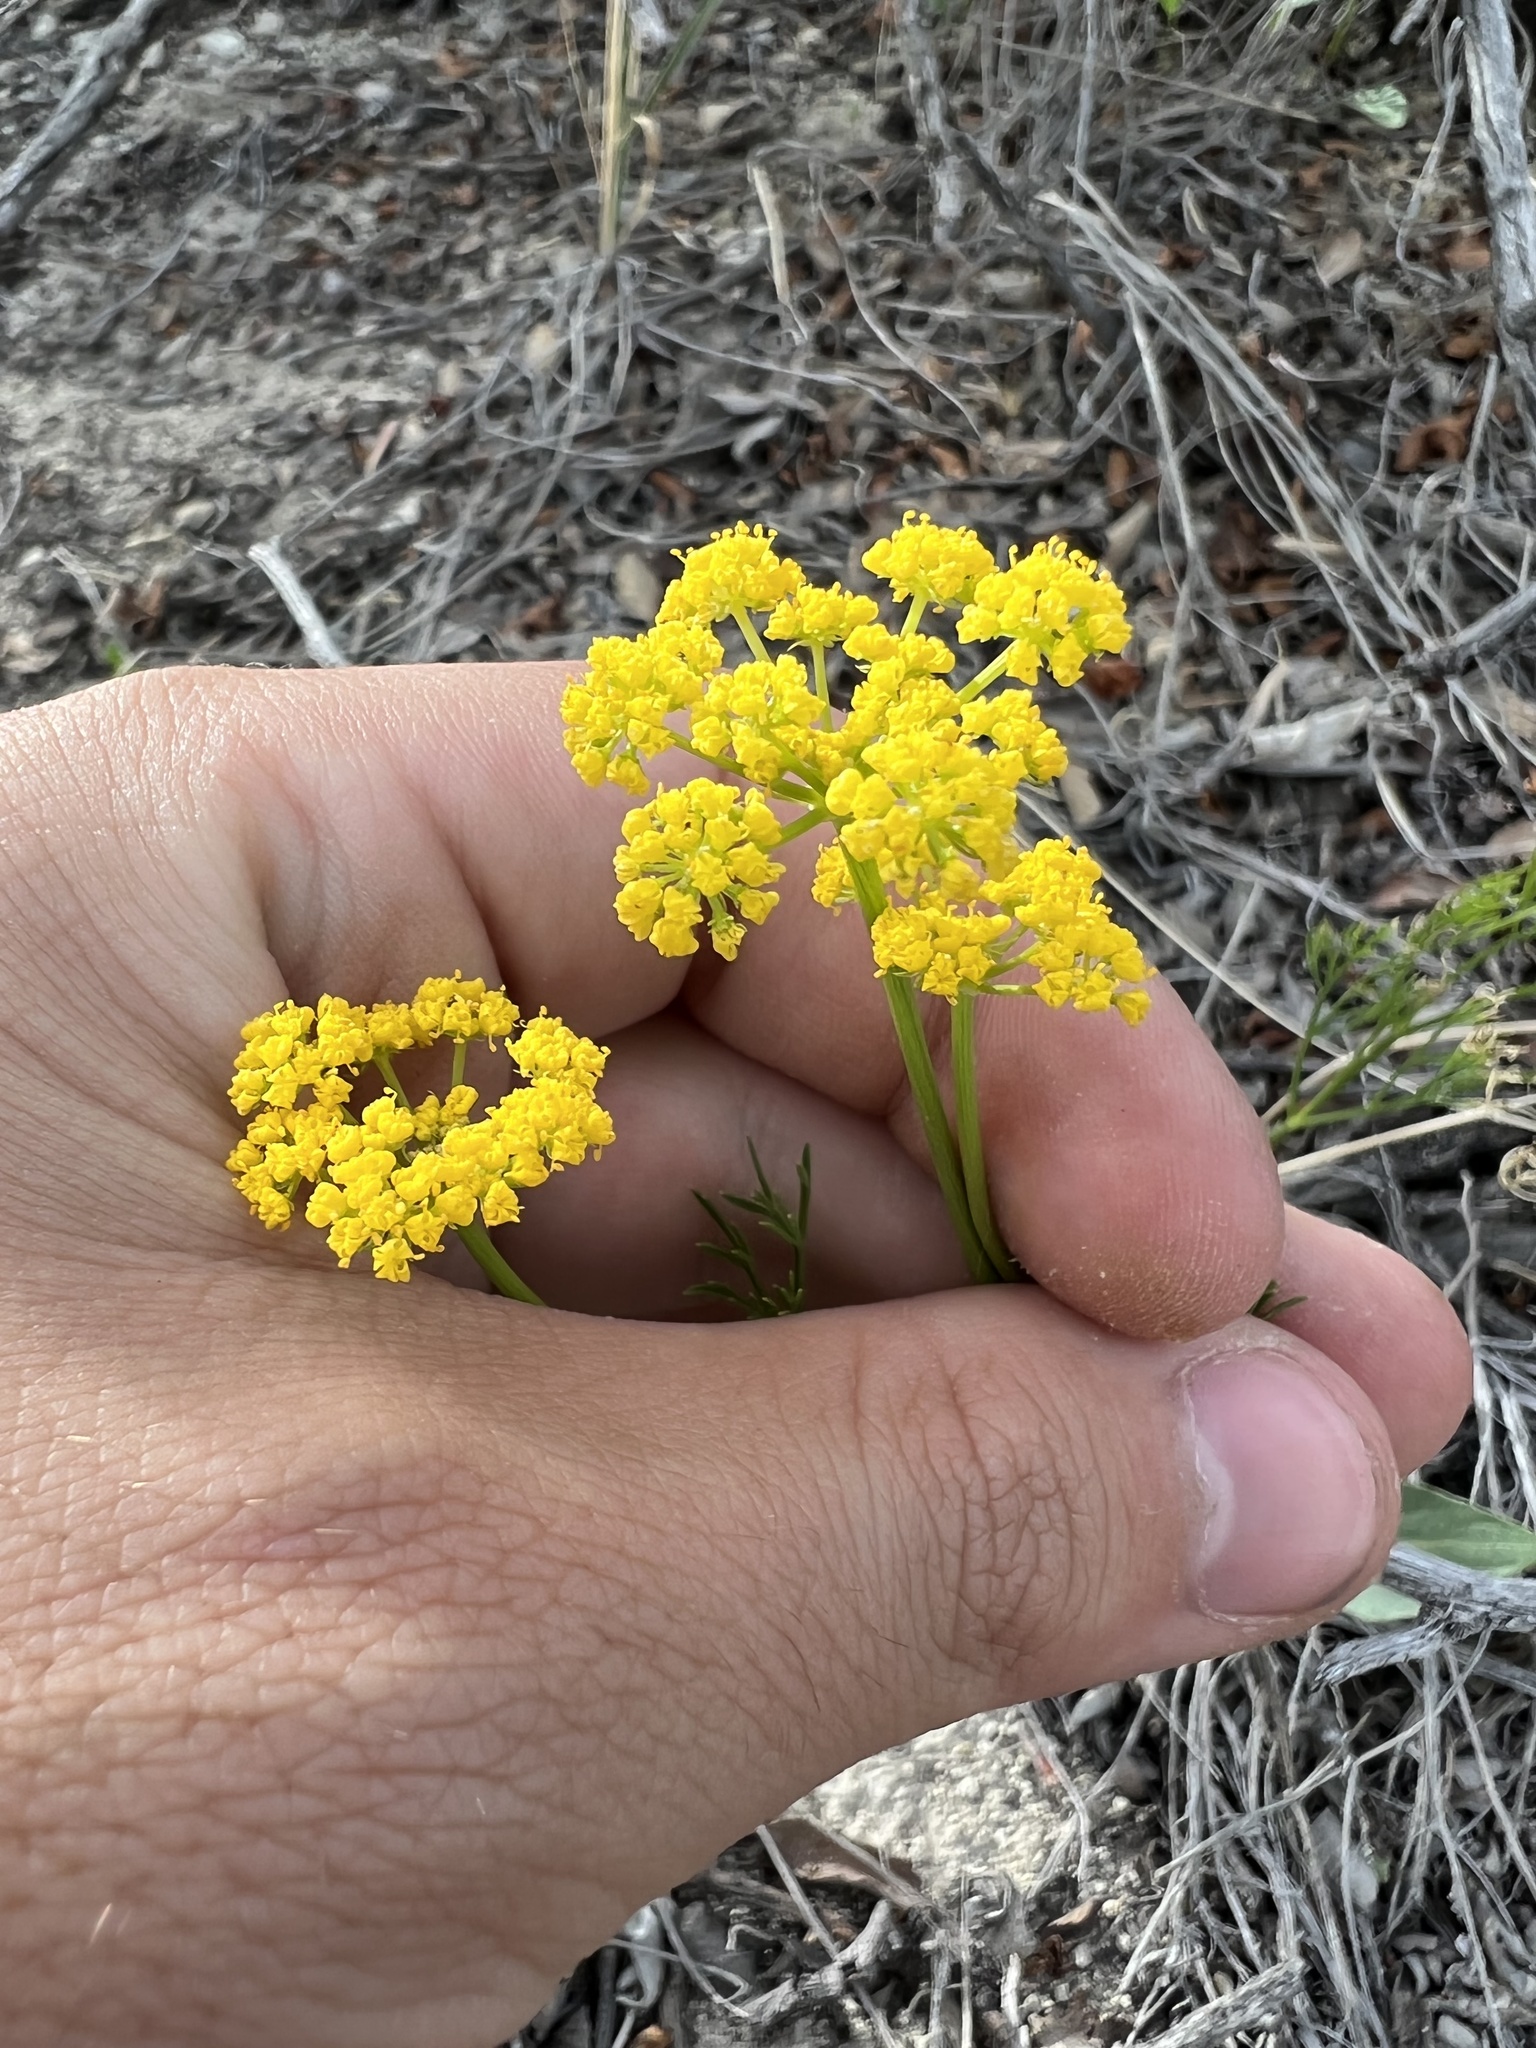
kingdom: Plantae
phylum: Tracheophyta
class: Magnoliopsida
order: Apiales
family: Apiaceae
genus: Harbouria
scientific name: Harbouria trachypleura
